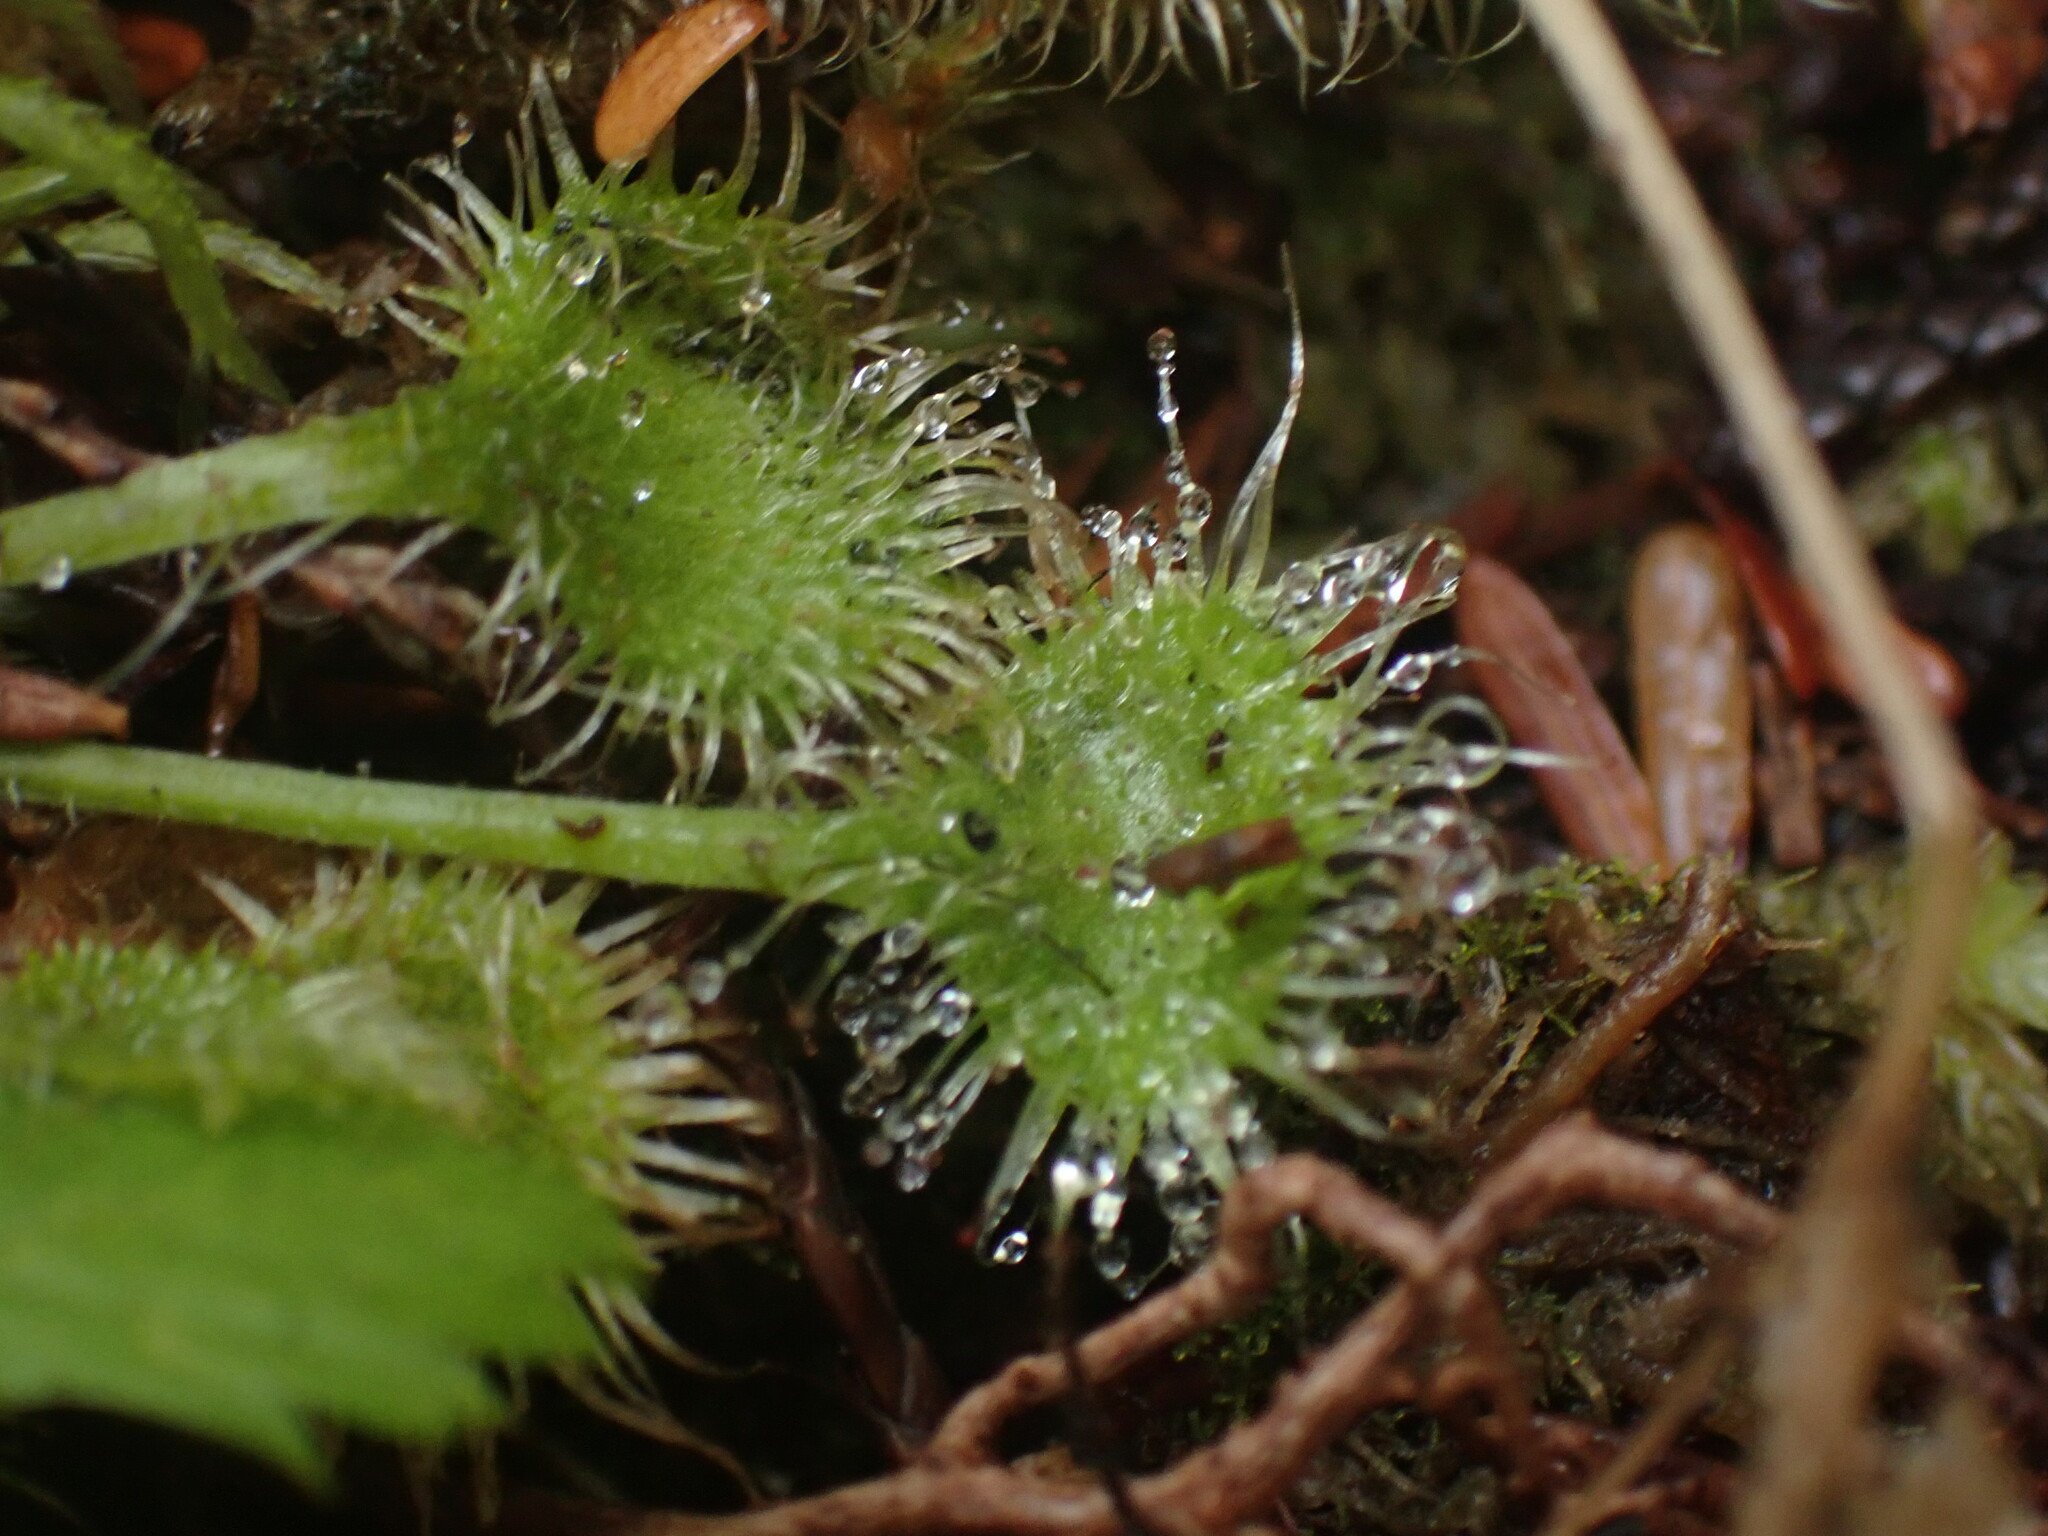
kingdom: Plantae
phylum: Tracheophyta
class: Magnoliopsida
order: Caryophyllales
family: Droseraceae
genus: Drosera
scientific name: Drosera rotundifolia
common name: Round-leaved sundew
